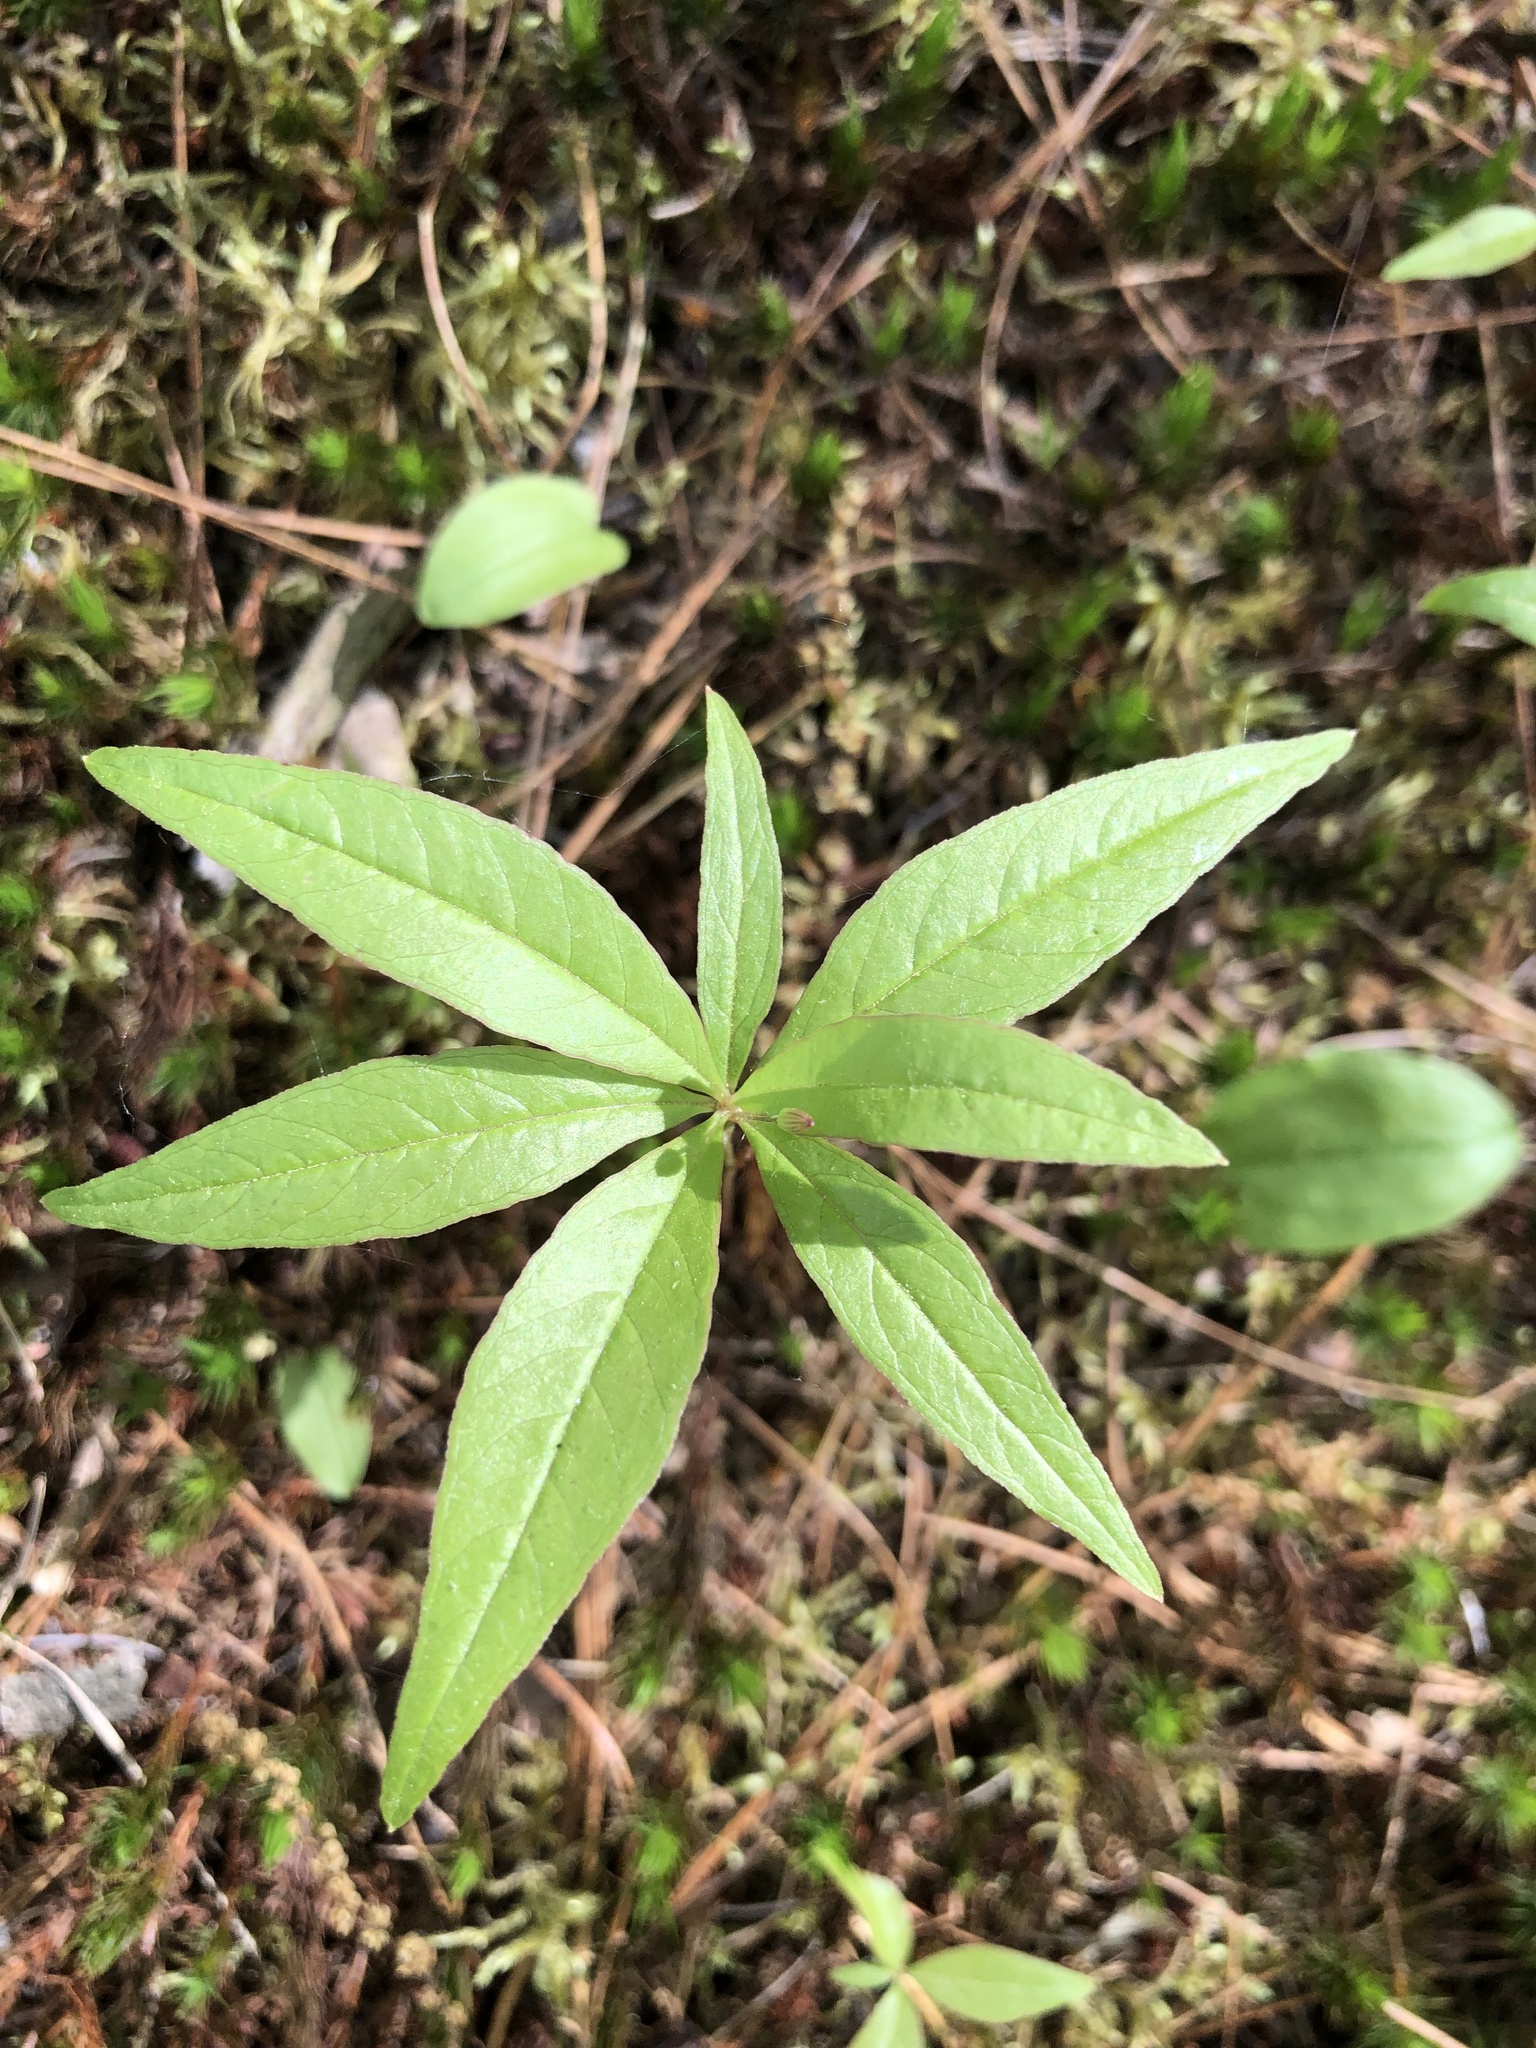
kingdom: Plantae
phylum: Tracheophyta
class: Magnoliopsida
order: Ericales
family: Primulaceae
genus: Lysimachia
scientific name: Lysimachia borealis
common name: American starflower
